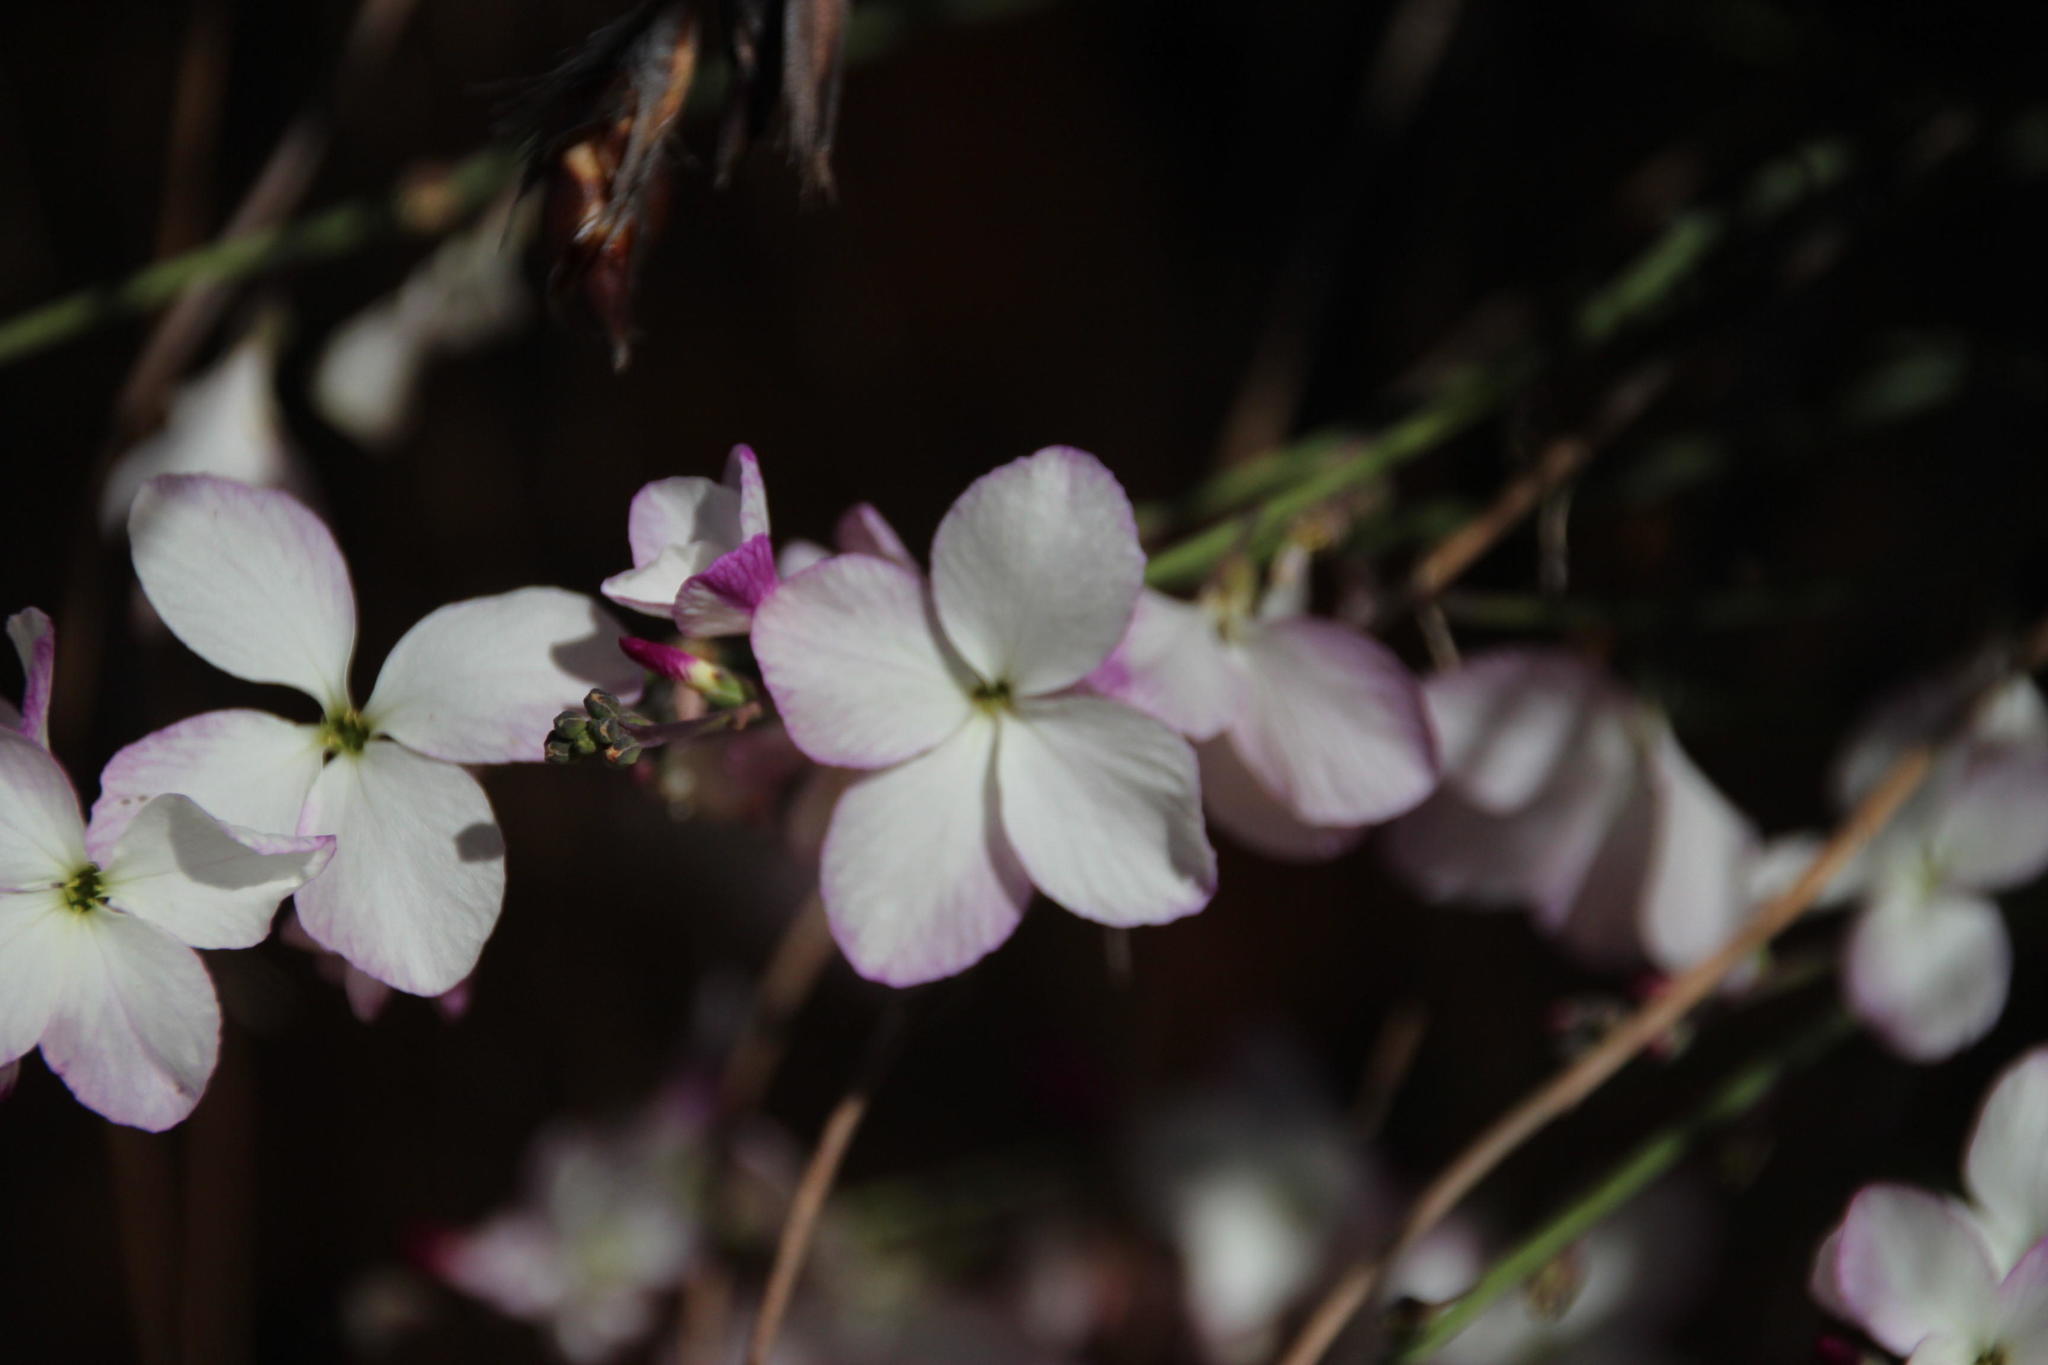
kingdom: Plantae
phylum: Tracheophyta
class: Magnoliopsida
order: Brassicales
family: Brassicaceae
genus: Heliophila
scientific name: Heliophila juncea
